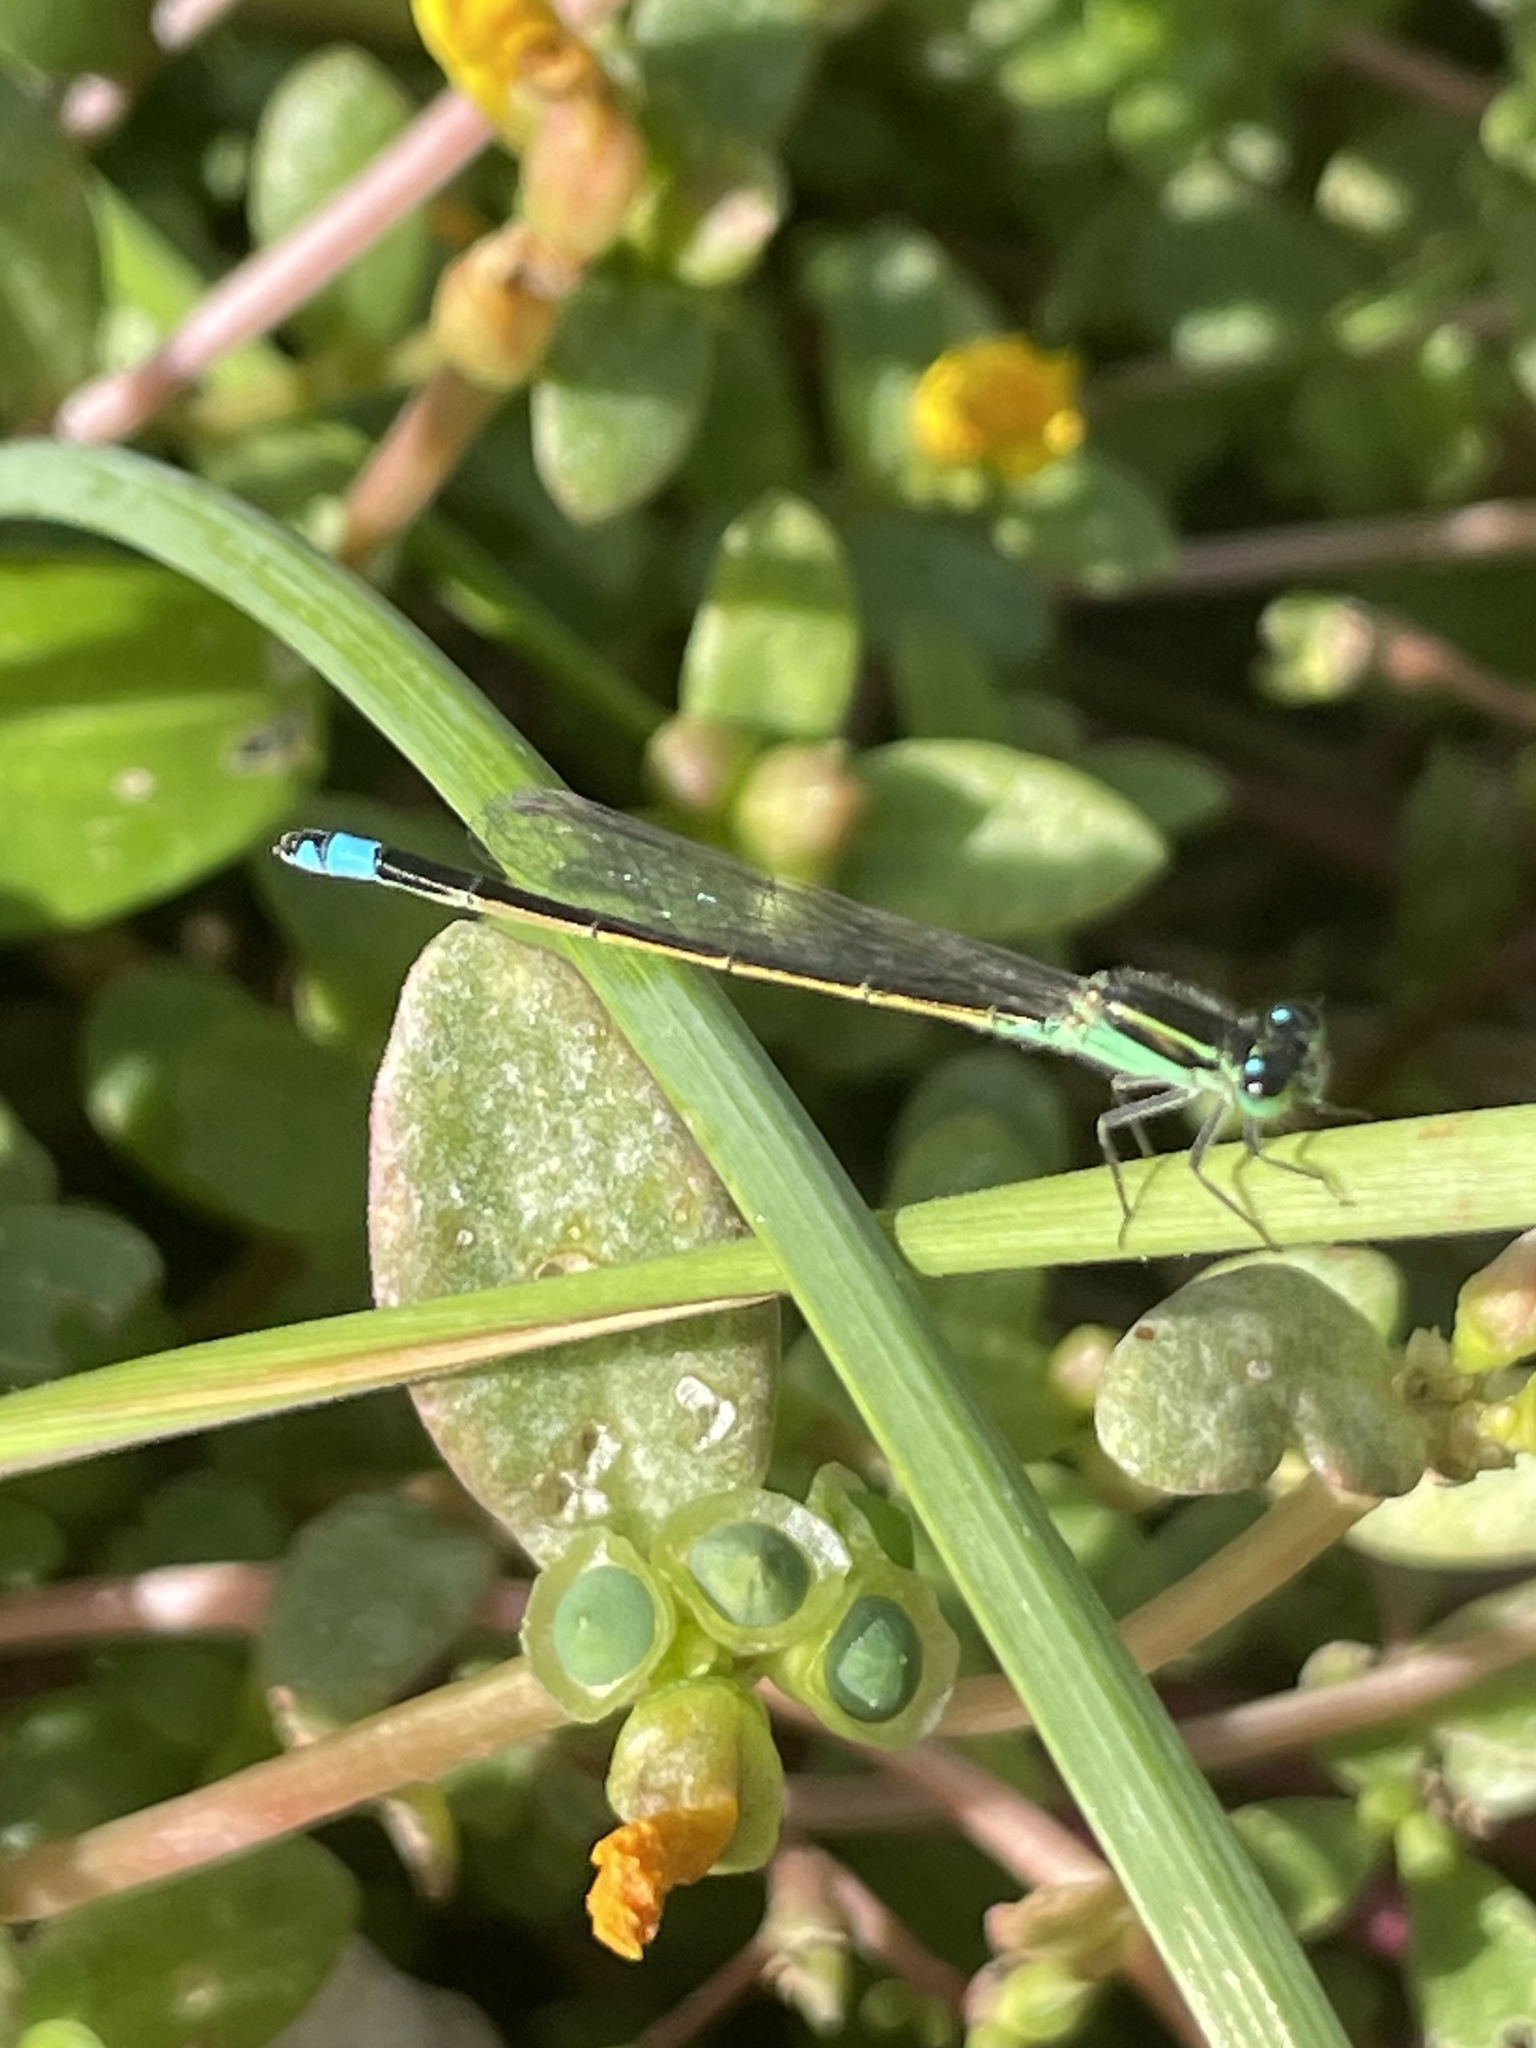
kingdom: Animalia
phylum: Arthropoda
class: Insecta
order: Odonata
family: Coenagrionidae
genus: Ischnura
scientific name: Ischnura ramburii
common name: Rambur's forktail
